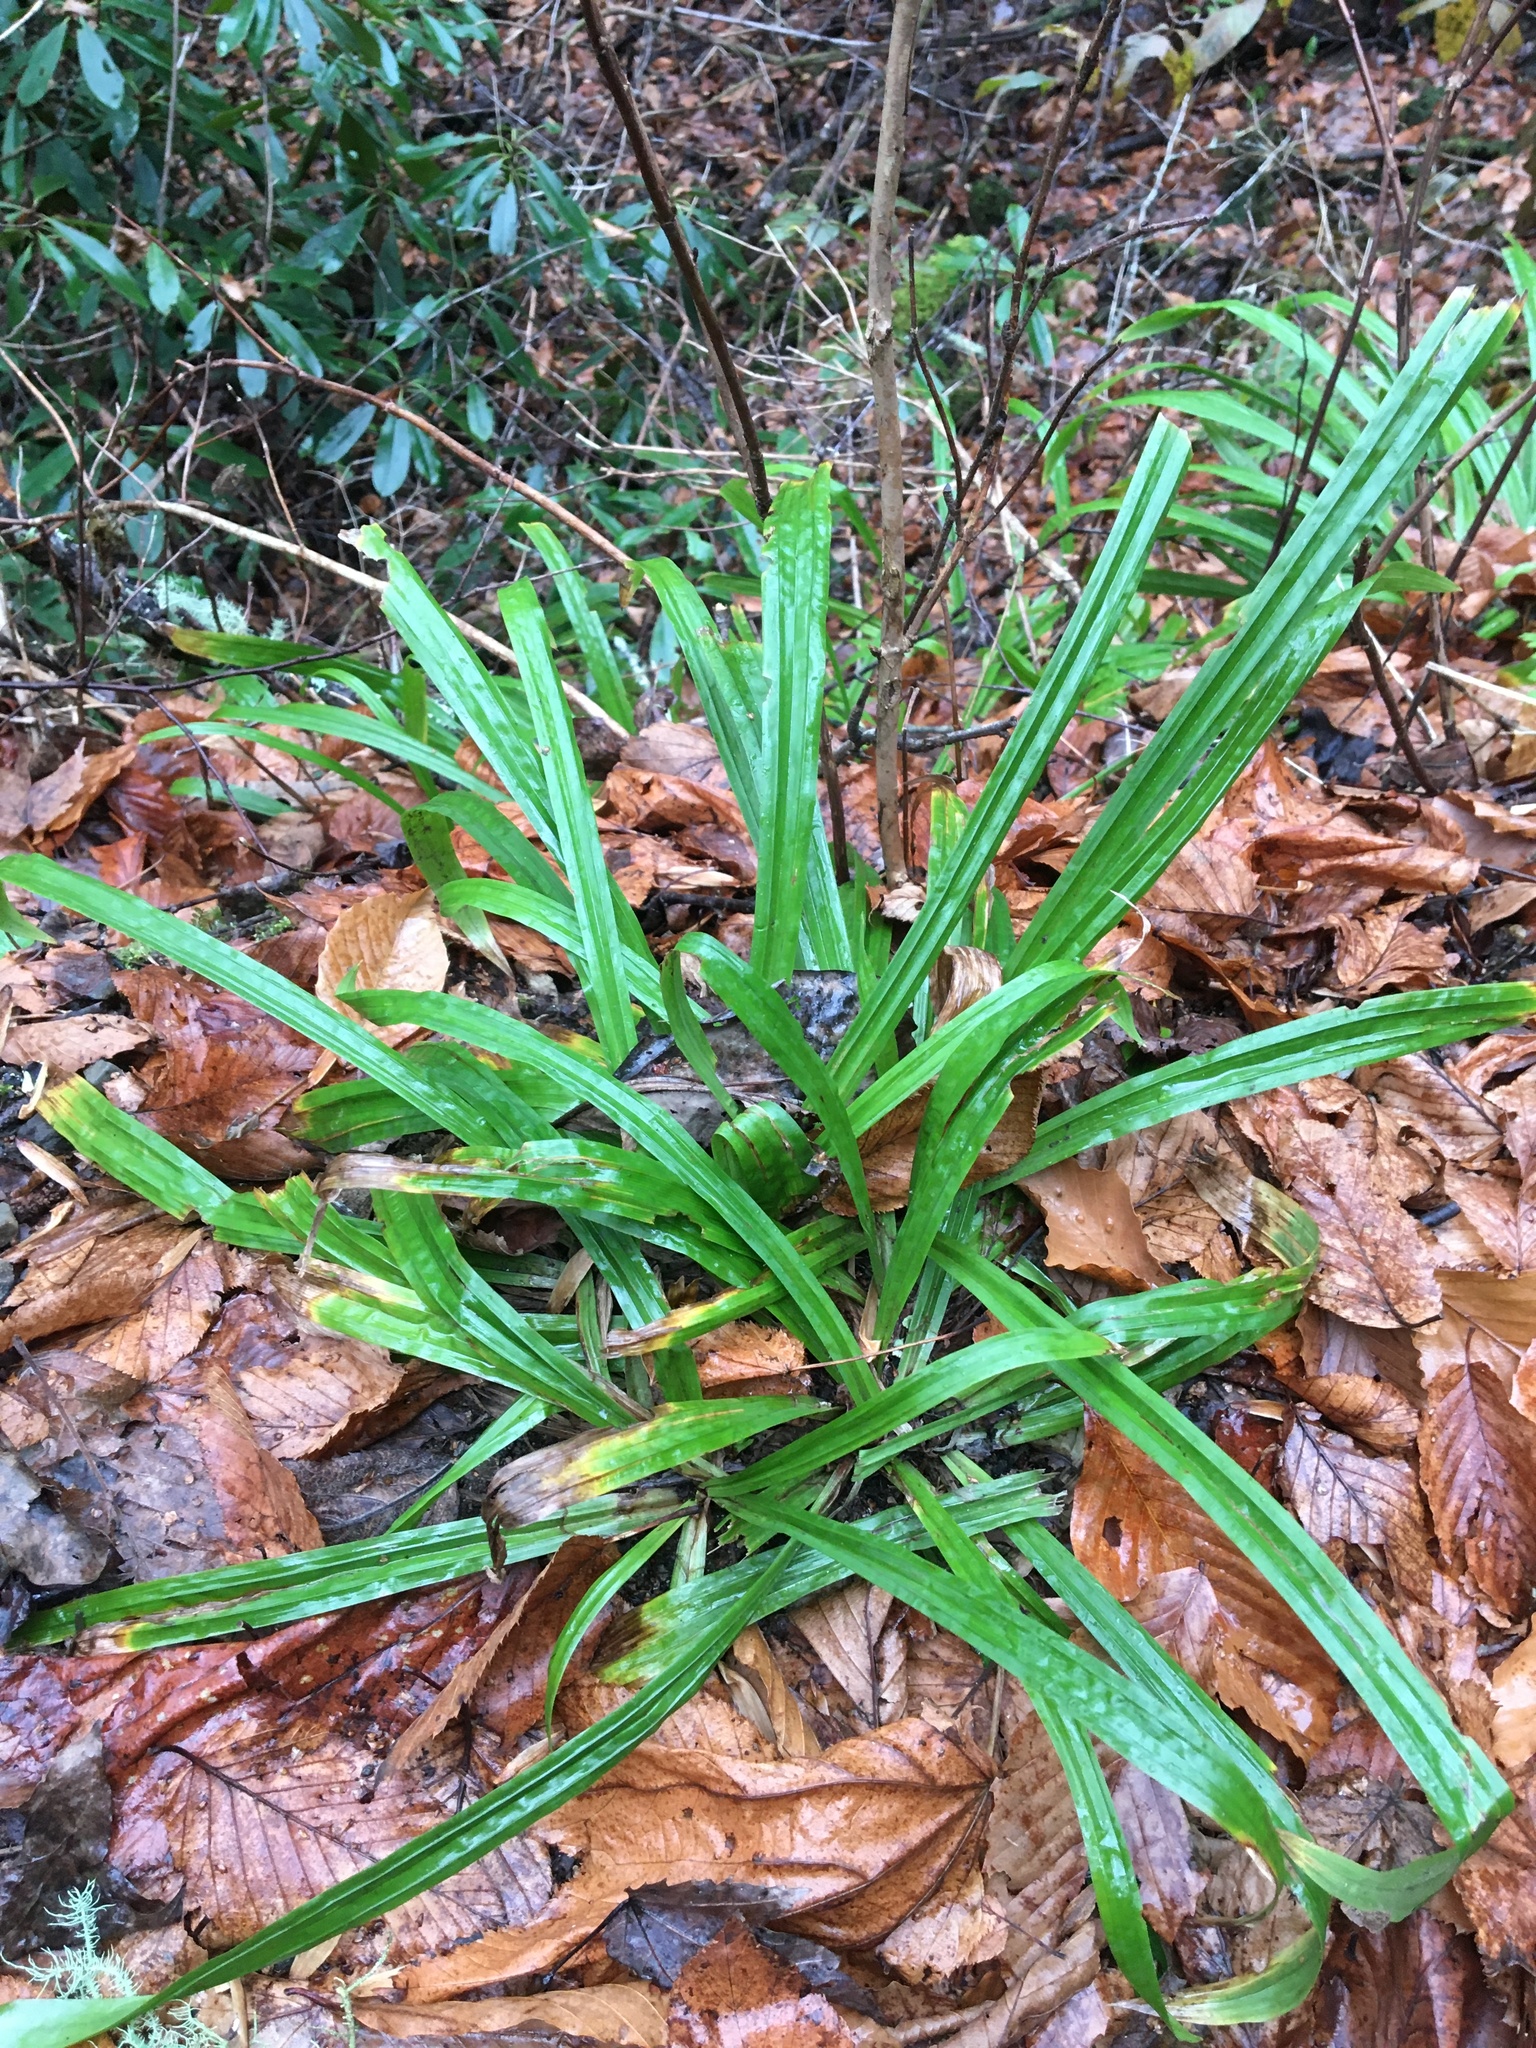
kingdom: Plantae
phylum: Tracheophyta
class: Liliopsida
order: Poales
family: Cyperaceae
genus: Carex
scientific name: Carex plantaginea
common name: Plantain-leaved sedge
